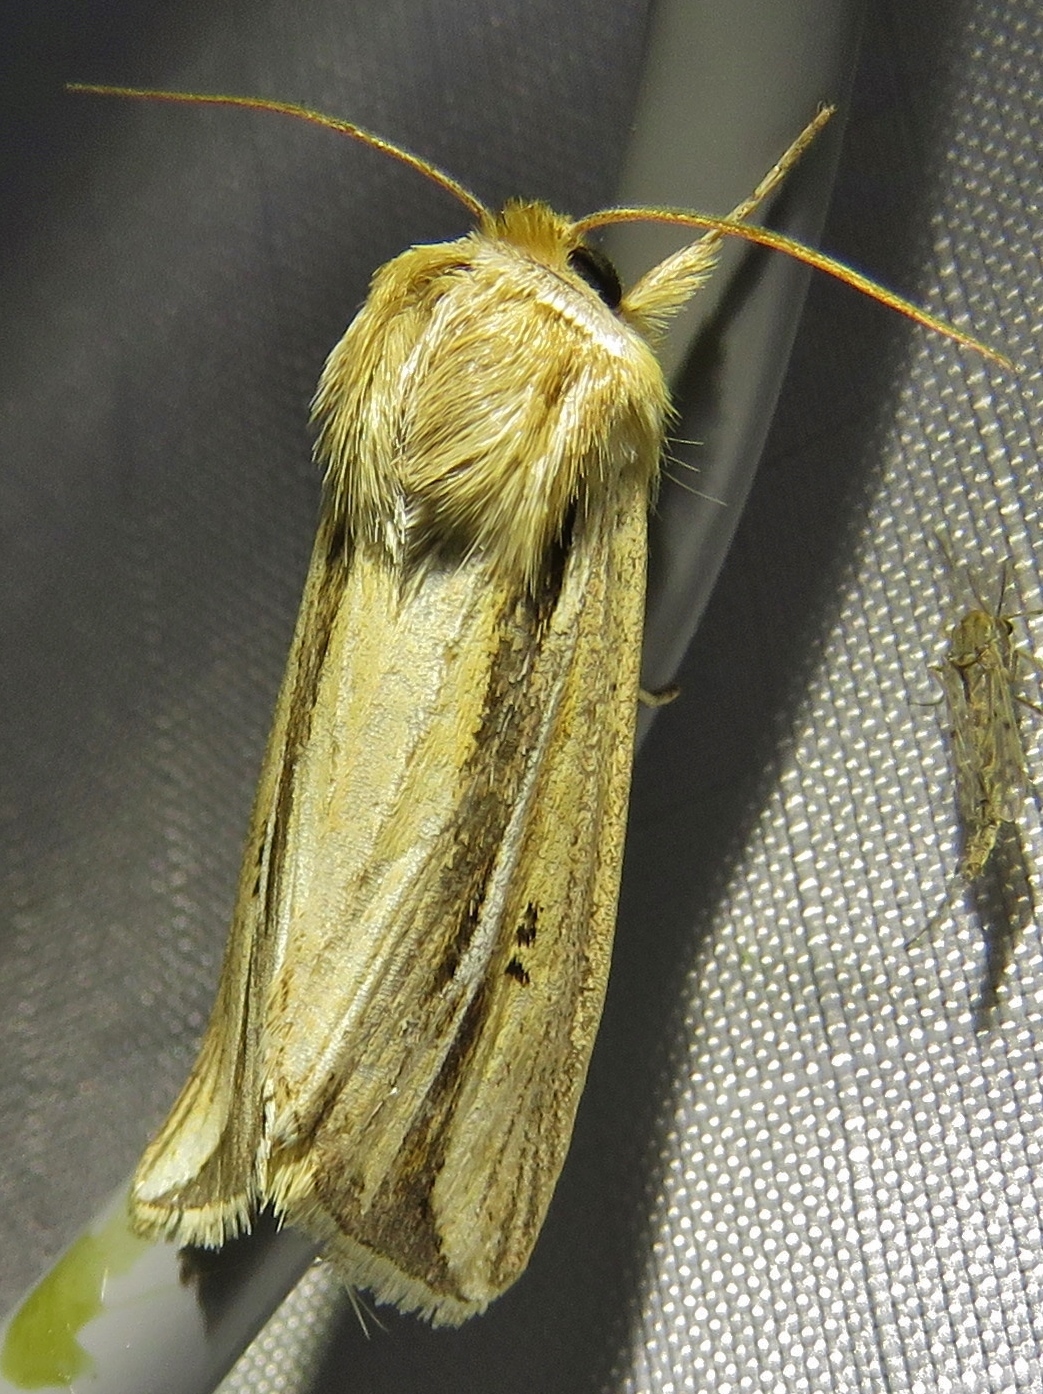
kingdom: Animalia
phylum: Arthropoda
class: Insecta
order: Lepidoptera
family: Noctuidae
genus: Dargida
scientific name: Dargida diffusa
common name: Wheat head armyworm
